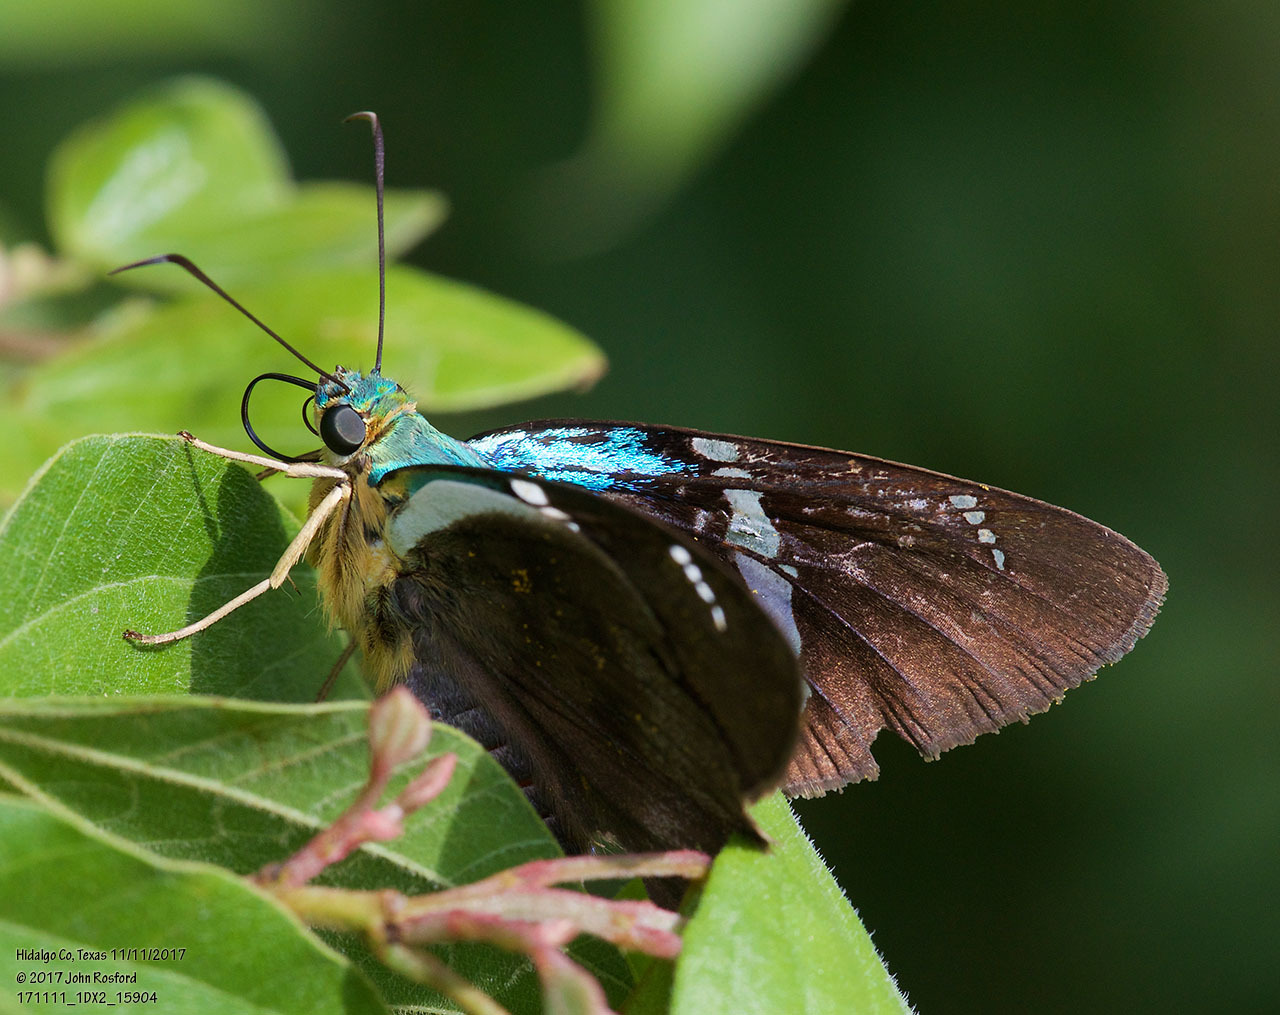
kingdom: Animalia
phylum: Arthropoda
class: Insecta
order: Lepidoptera
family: Hesperiidae
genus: Astraptes
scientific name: Astraptes fulgerator
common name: Two-barred flasher
